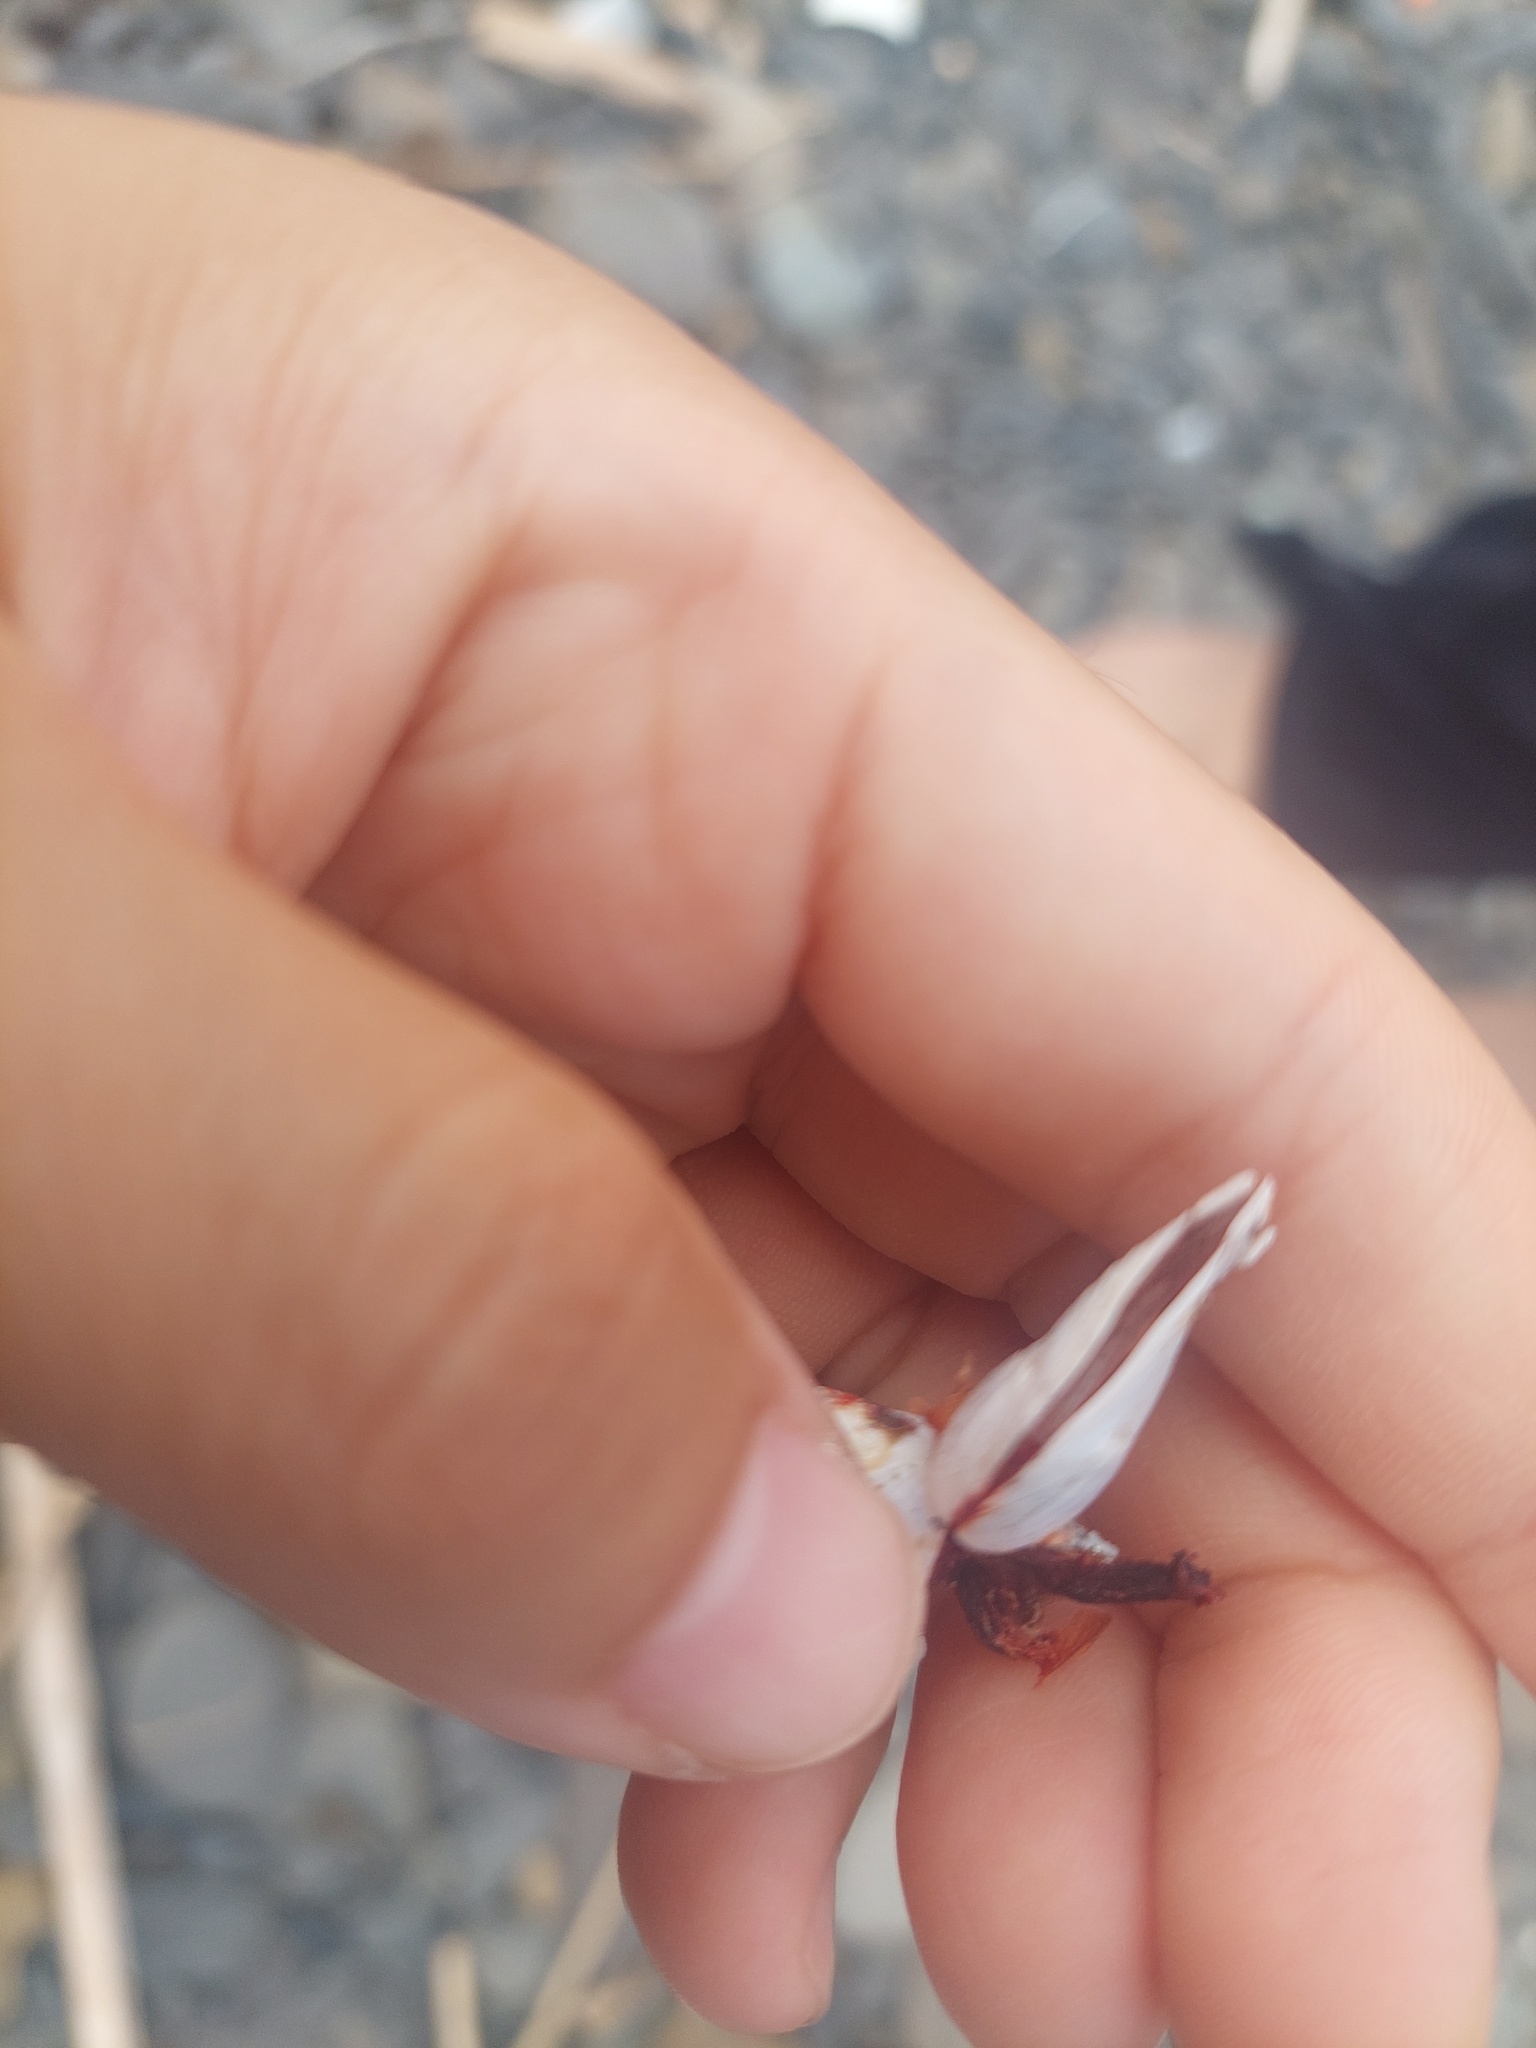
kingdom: Animalia
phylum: Arthropoda
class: Maxillopoda
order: Pedunculata
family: Lepadidae
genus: Lepas
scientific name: Lepas indica
